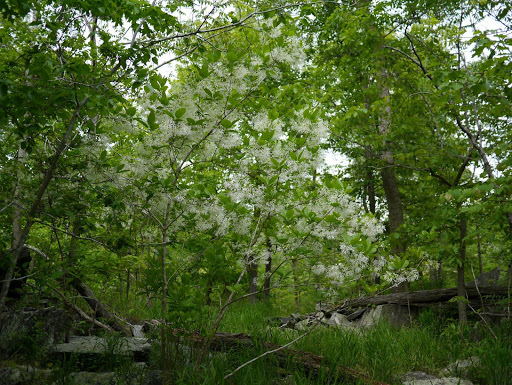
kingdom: Plantae
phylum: Tracheophyta
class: Magnoliopsida
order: Lamiales
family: Oleaceae
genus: Chionanthus
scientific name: Chionanthus virginicus
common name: American fringetree
